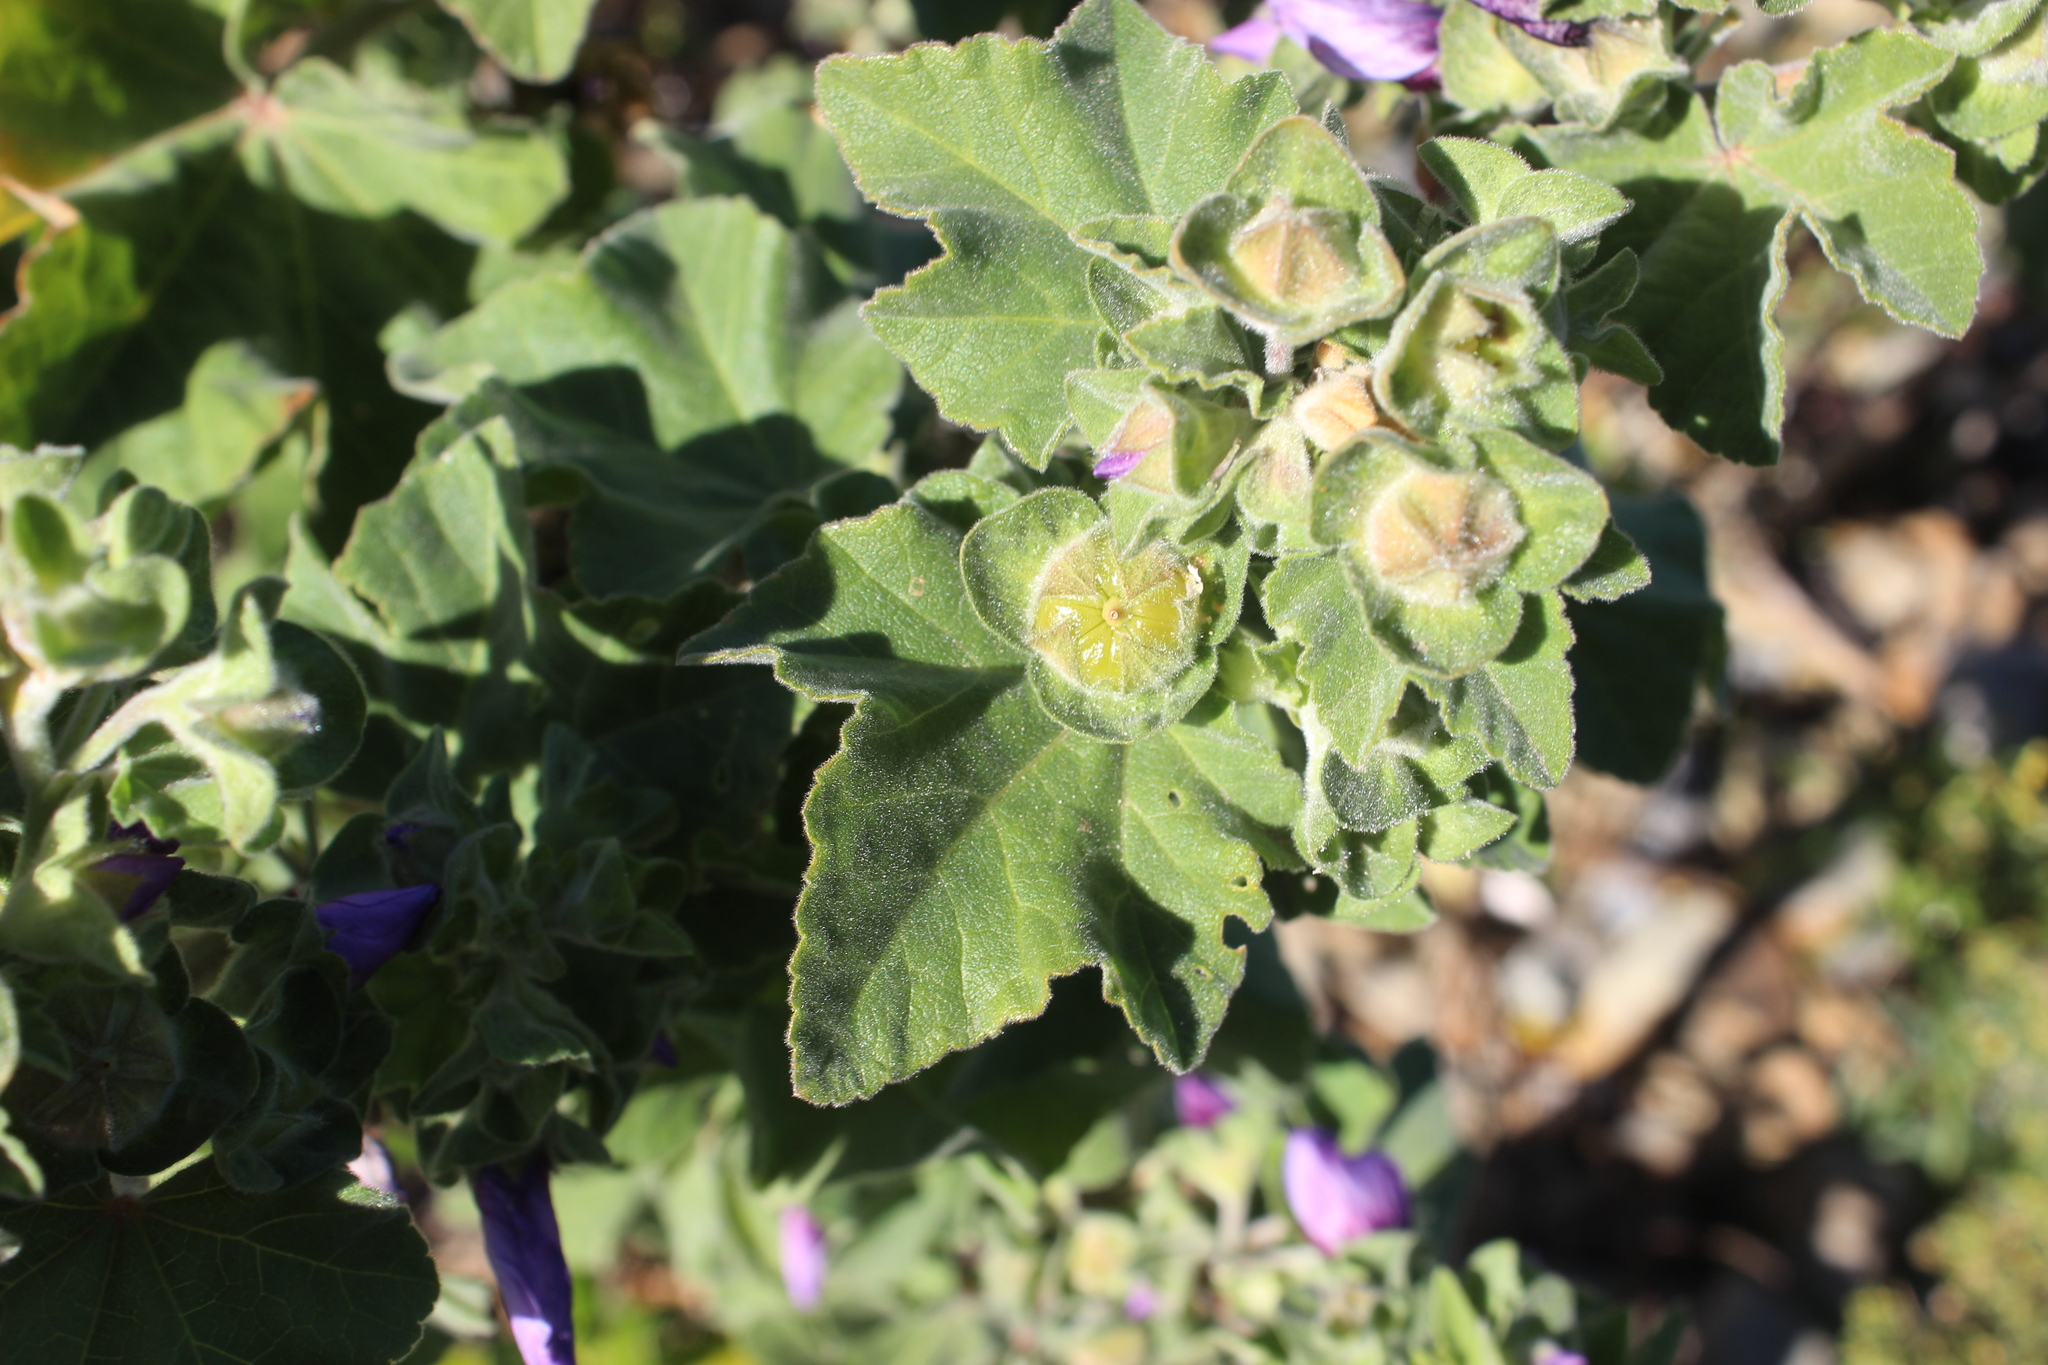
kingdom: Plantae
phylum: Tracheophyta
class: Magnoliopsida
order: Malvales
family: Malvaceae
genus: Malva
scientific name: Malva arborea
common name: Tree mallow
